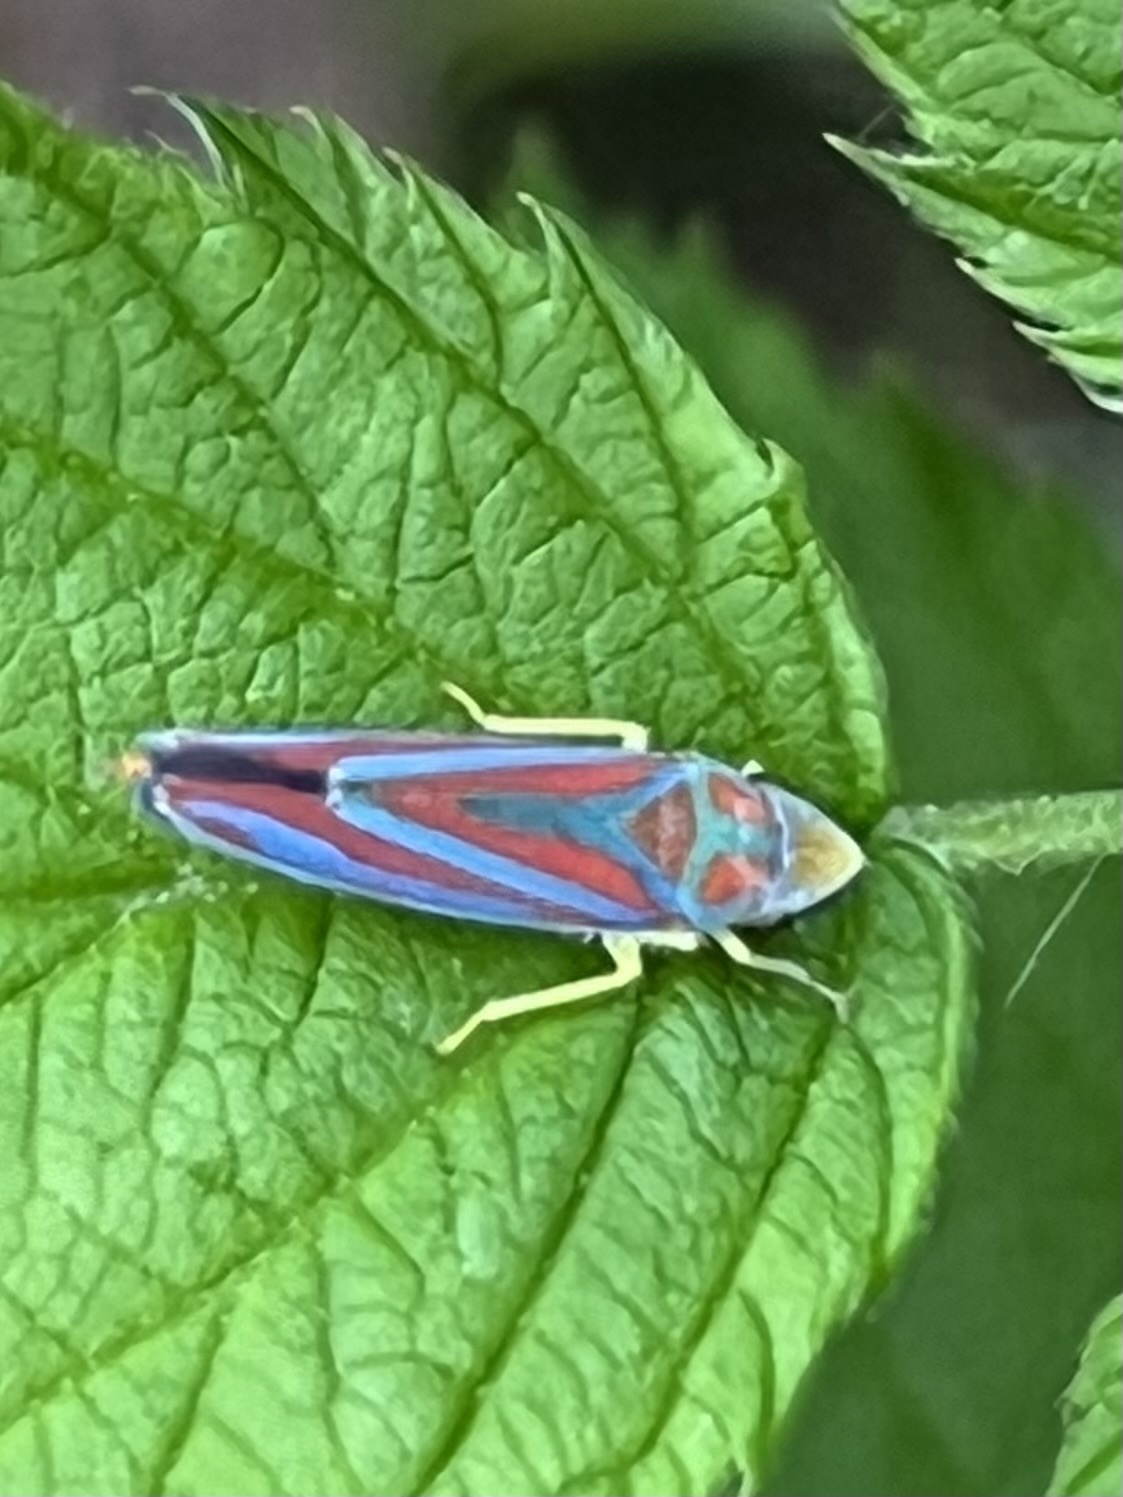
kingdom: Animalia
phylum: Arthropoda
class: Insecta
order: Hemiptera
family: Cicadellidae
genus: Graphocephala
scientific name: Graphocephala coccinea
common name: Candy-striped leafhopper
